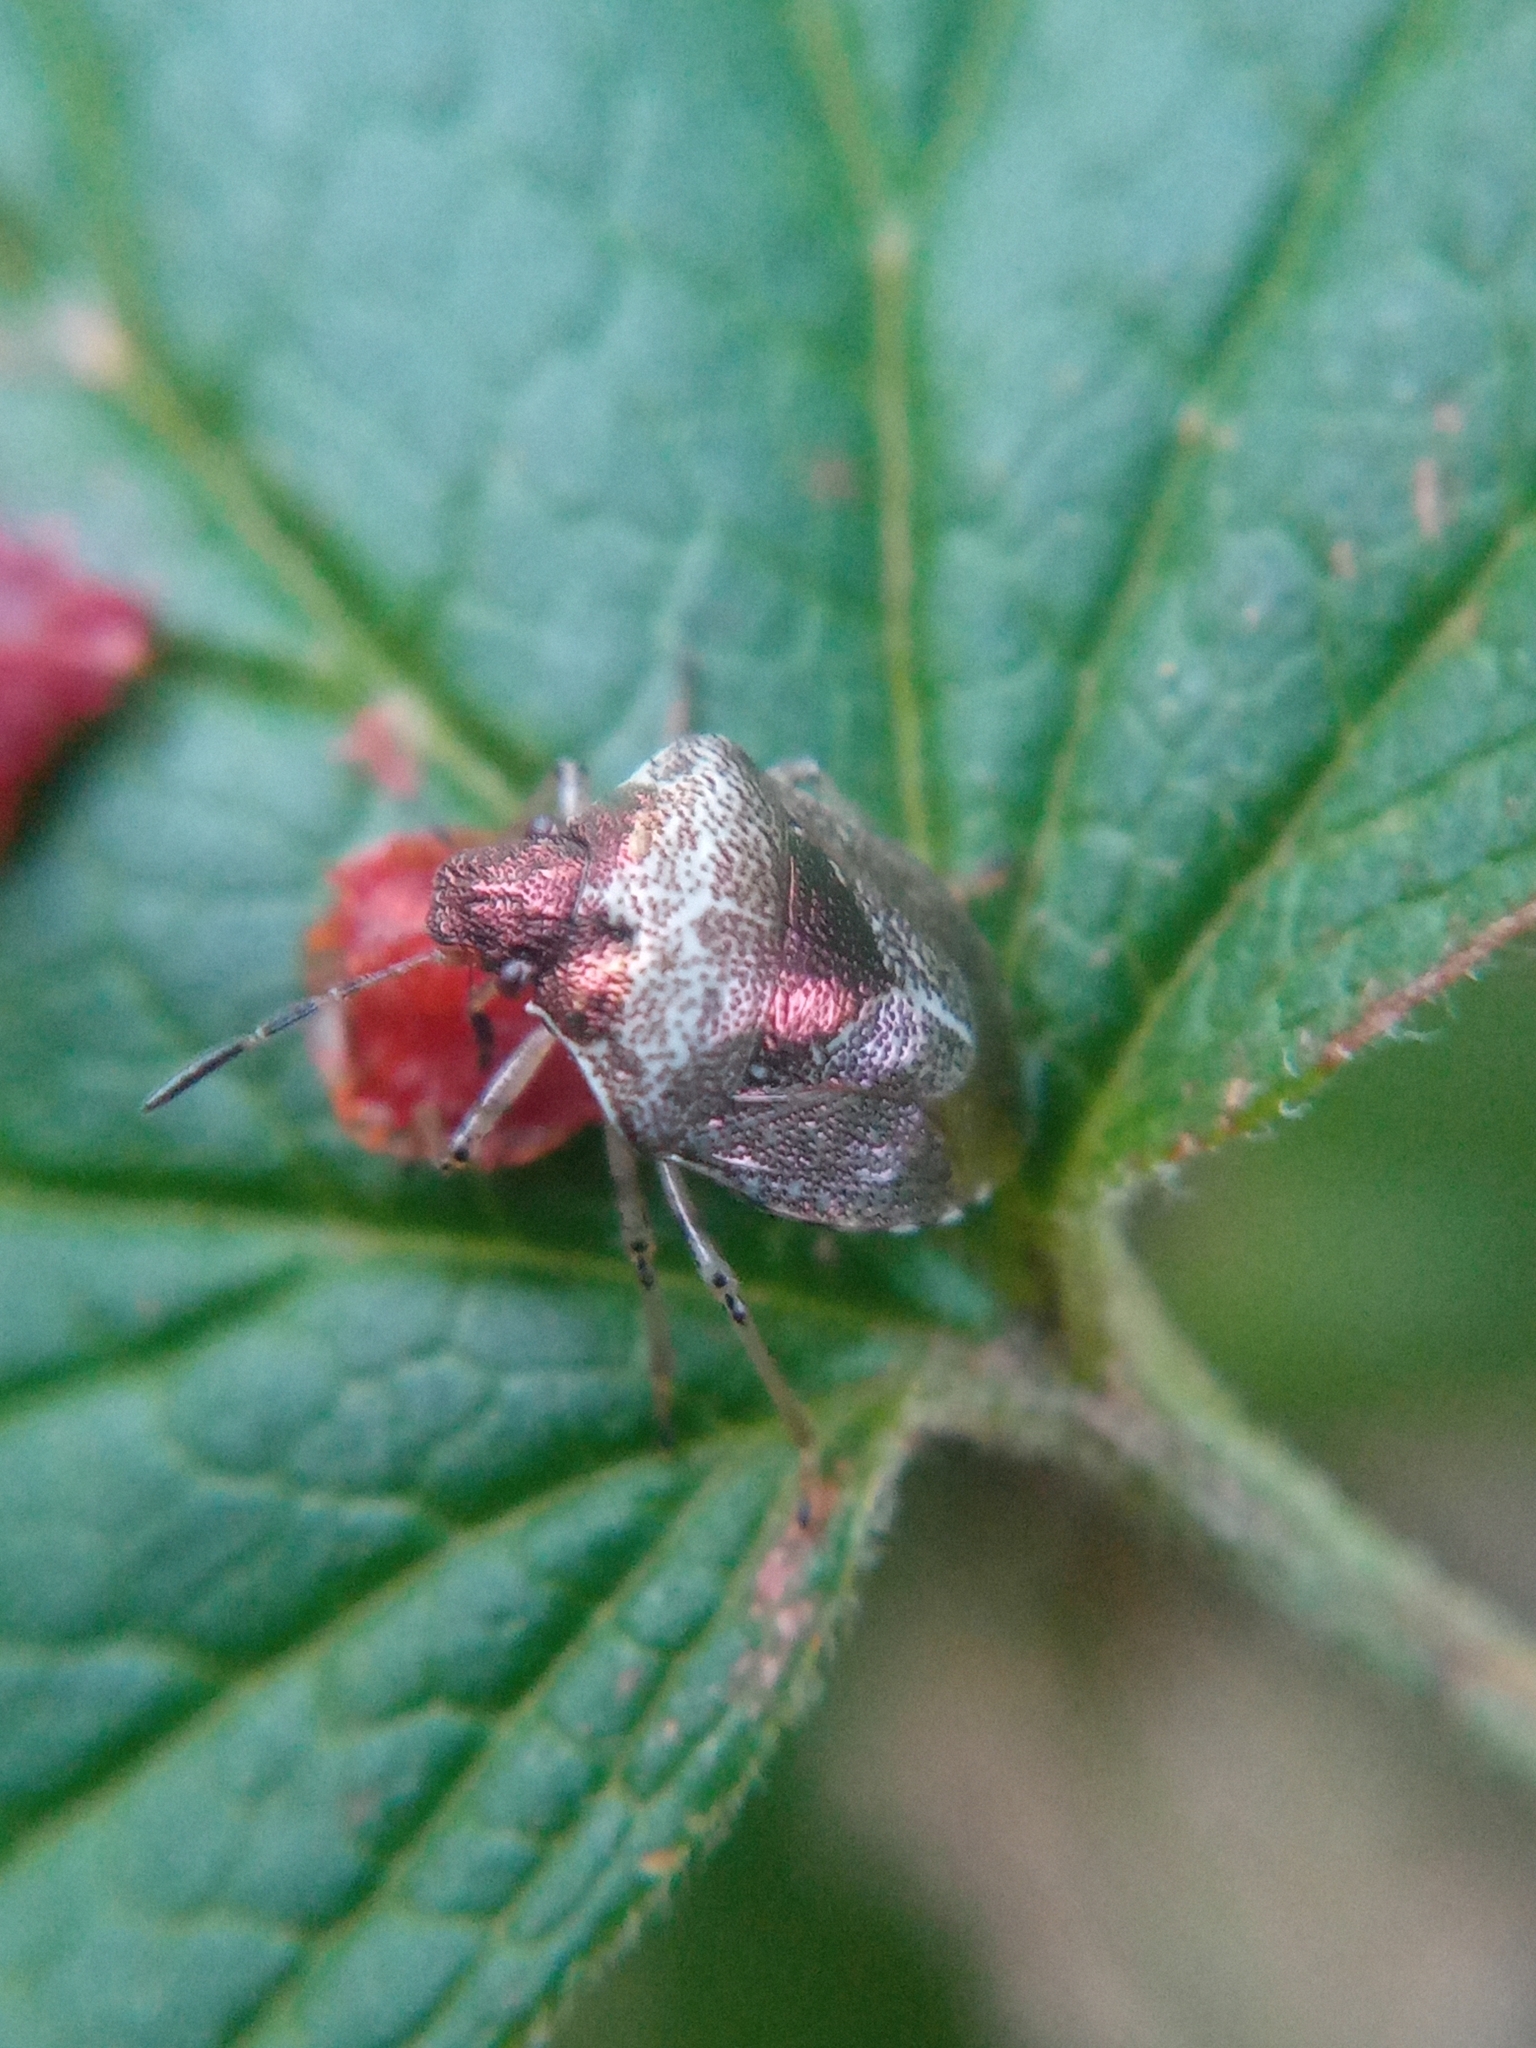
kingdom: Animalia
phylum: Arthropoda
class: Insecta
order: Hemiptera
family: Pentatomidae
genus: Eysarcoris
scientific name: Eysarcoris venustissimus
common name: Woundwort shieldbug
